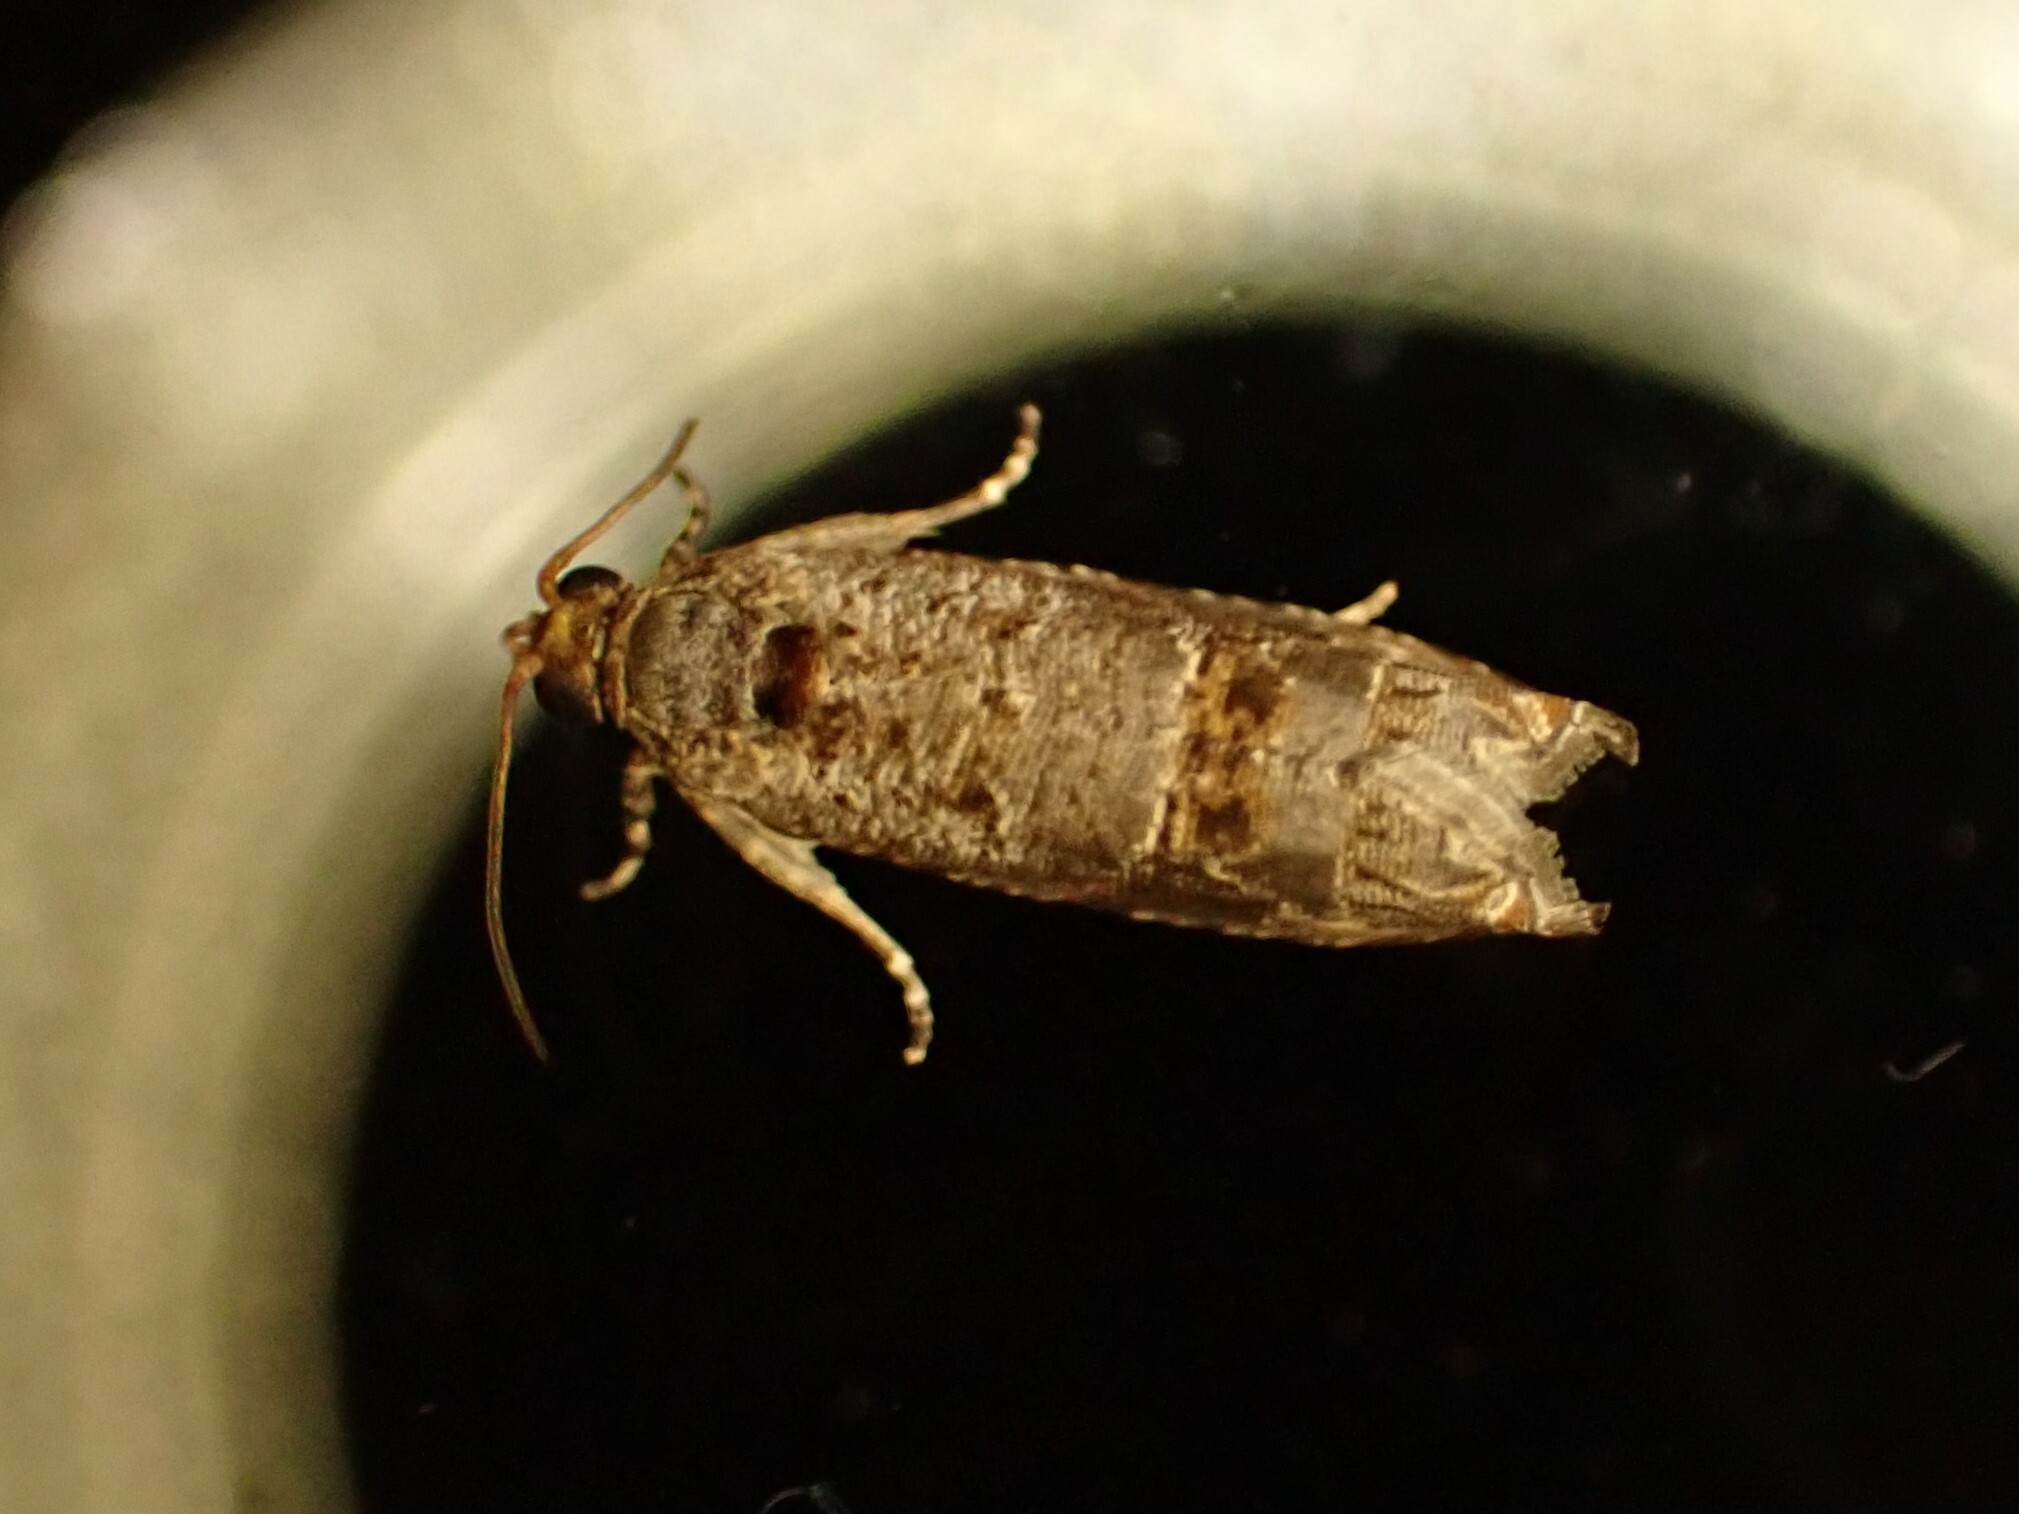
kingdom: Animalia
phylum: Arthropoda
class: Insecta
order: Hemiptera
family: Derbidae
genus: Paralyricen
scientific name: Paralyricen tefrias
